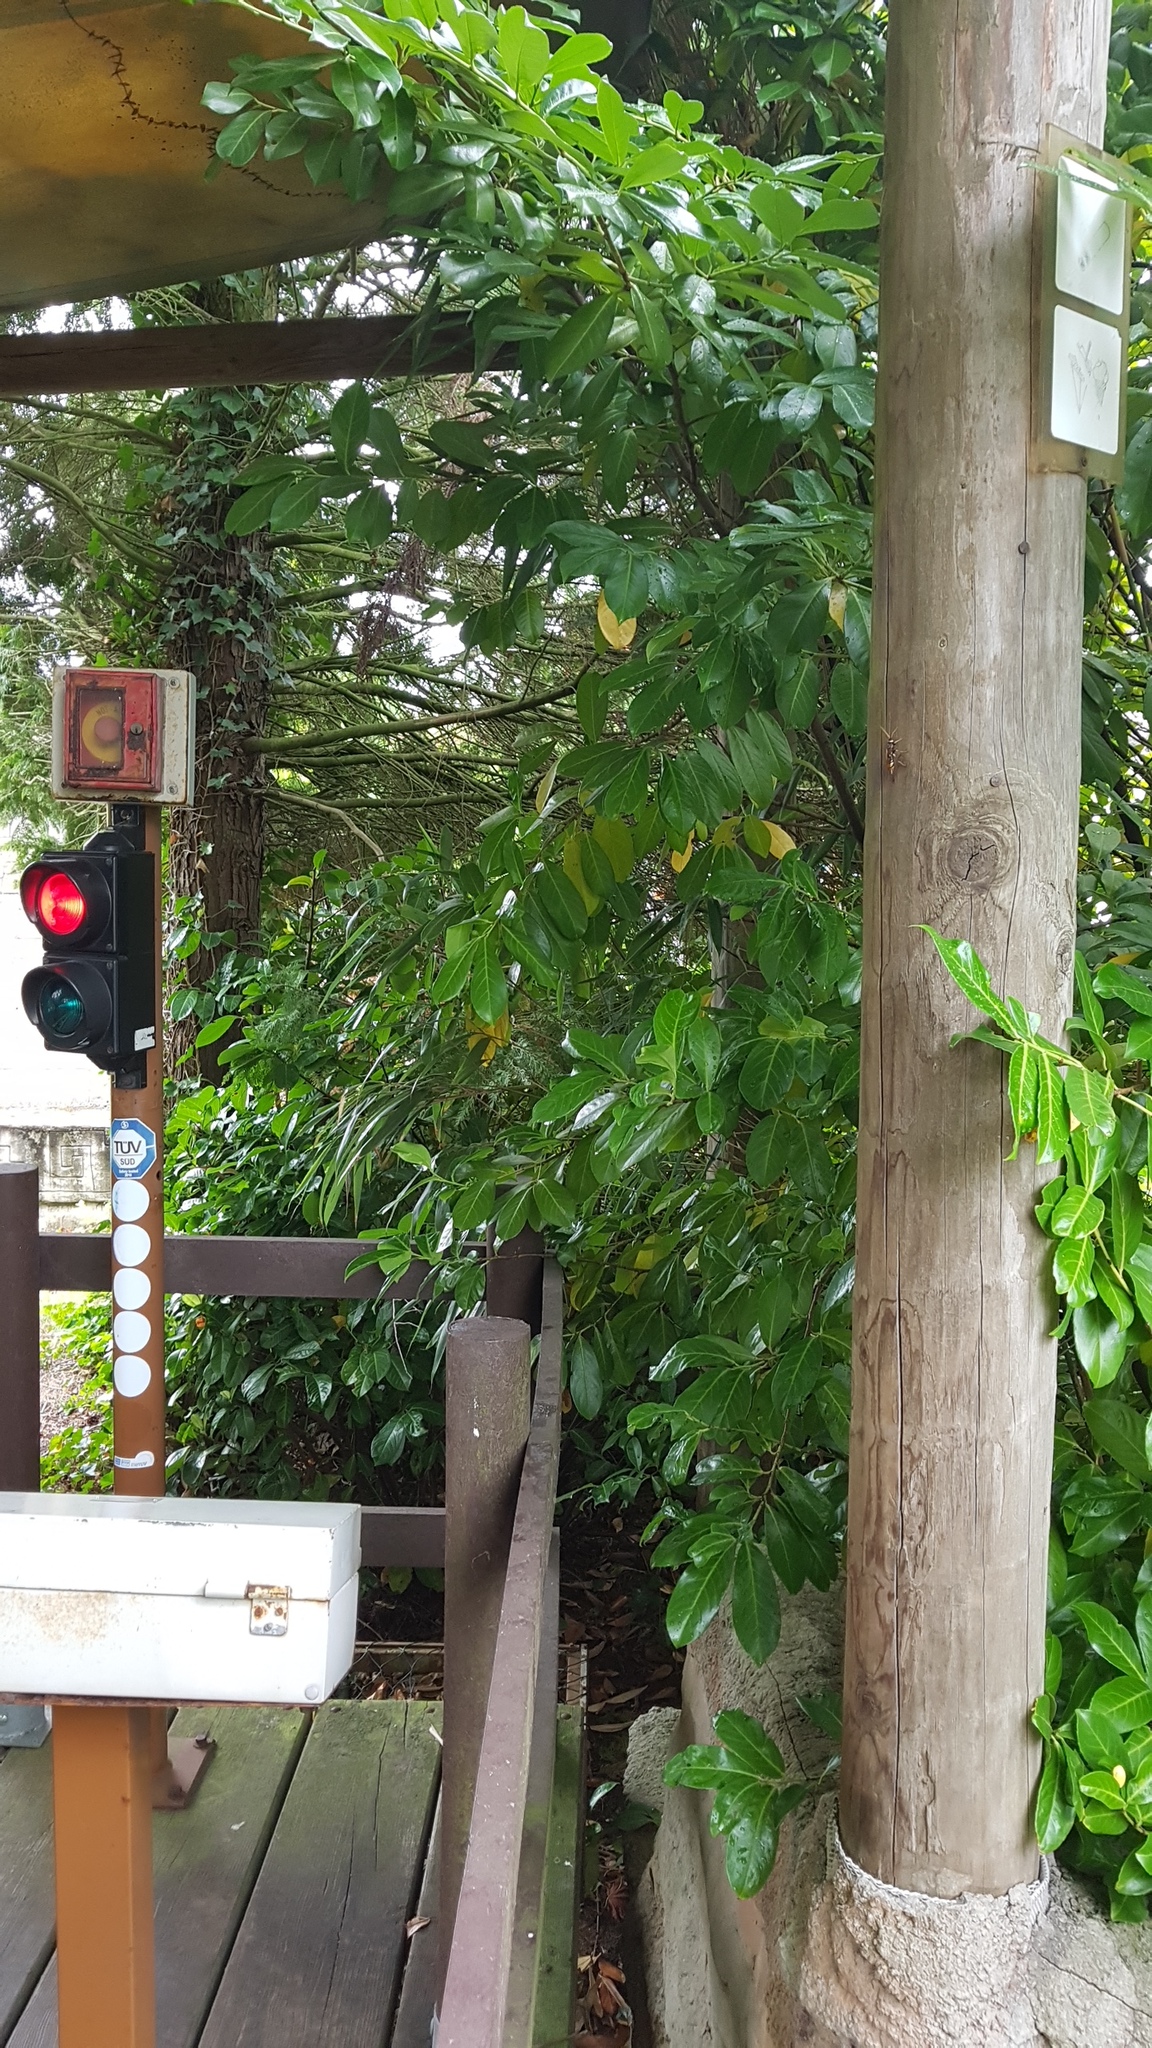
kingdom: Animalia
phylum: Arthropoda
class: Insecta
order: Hymenoptera
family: Siricidae
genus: Urocerus
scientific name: Urocerus augur
